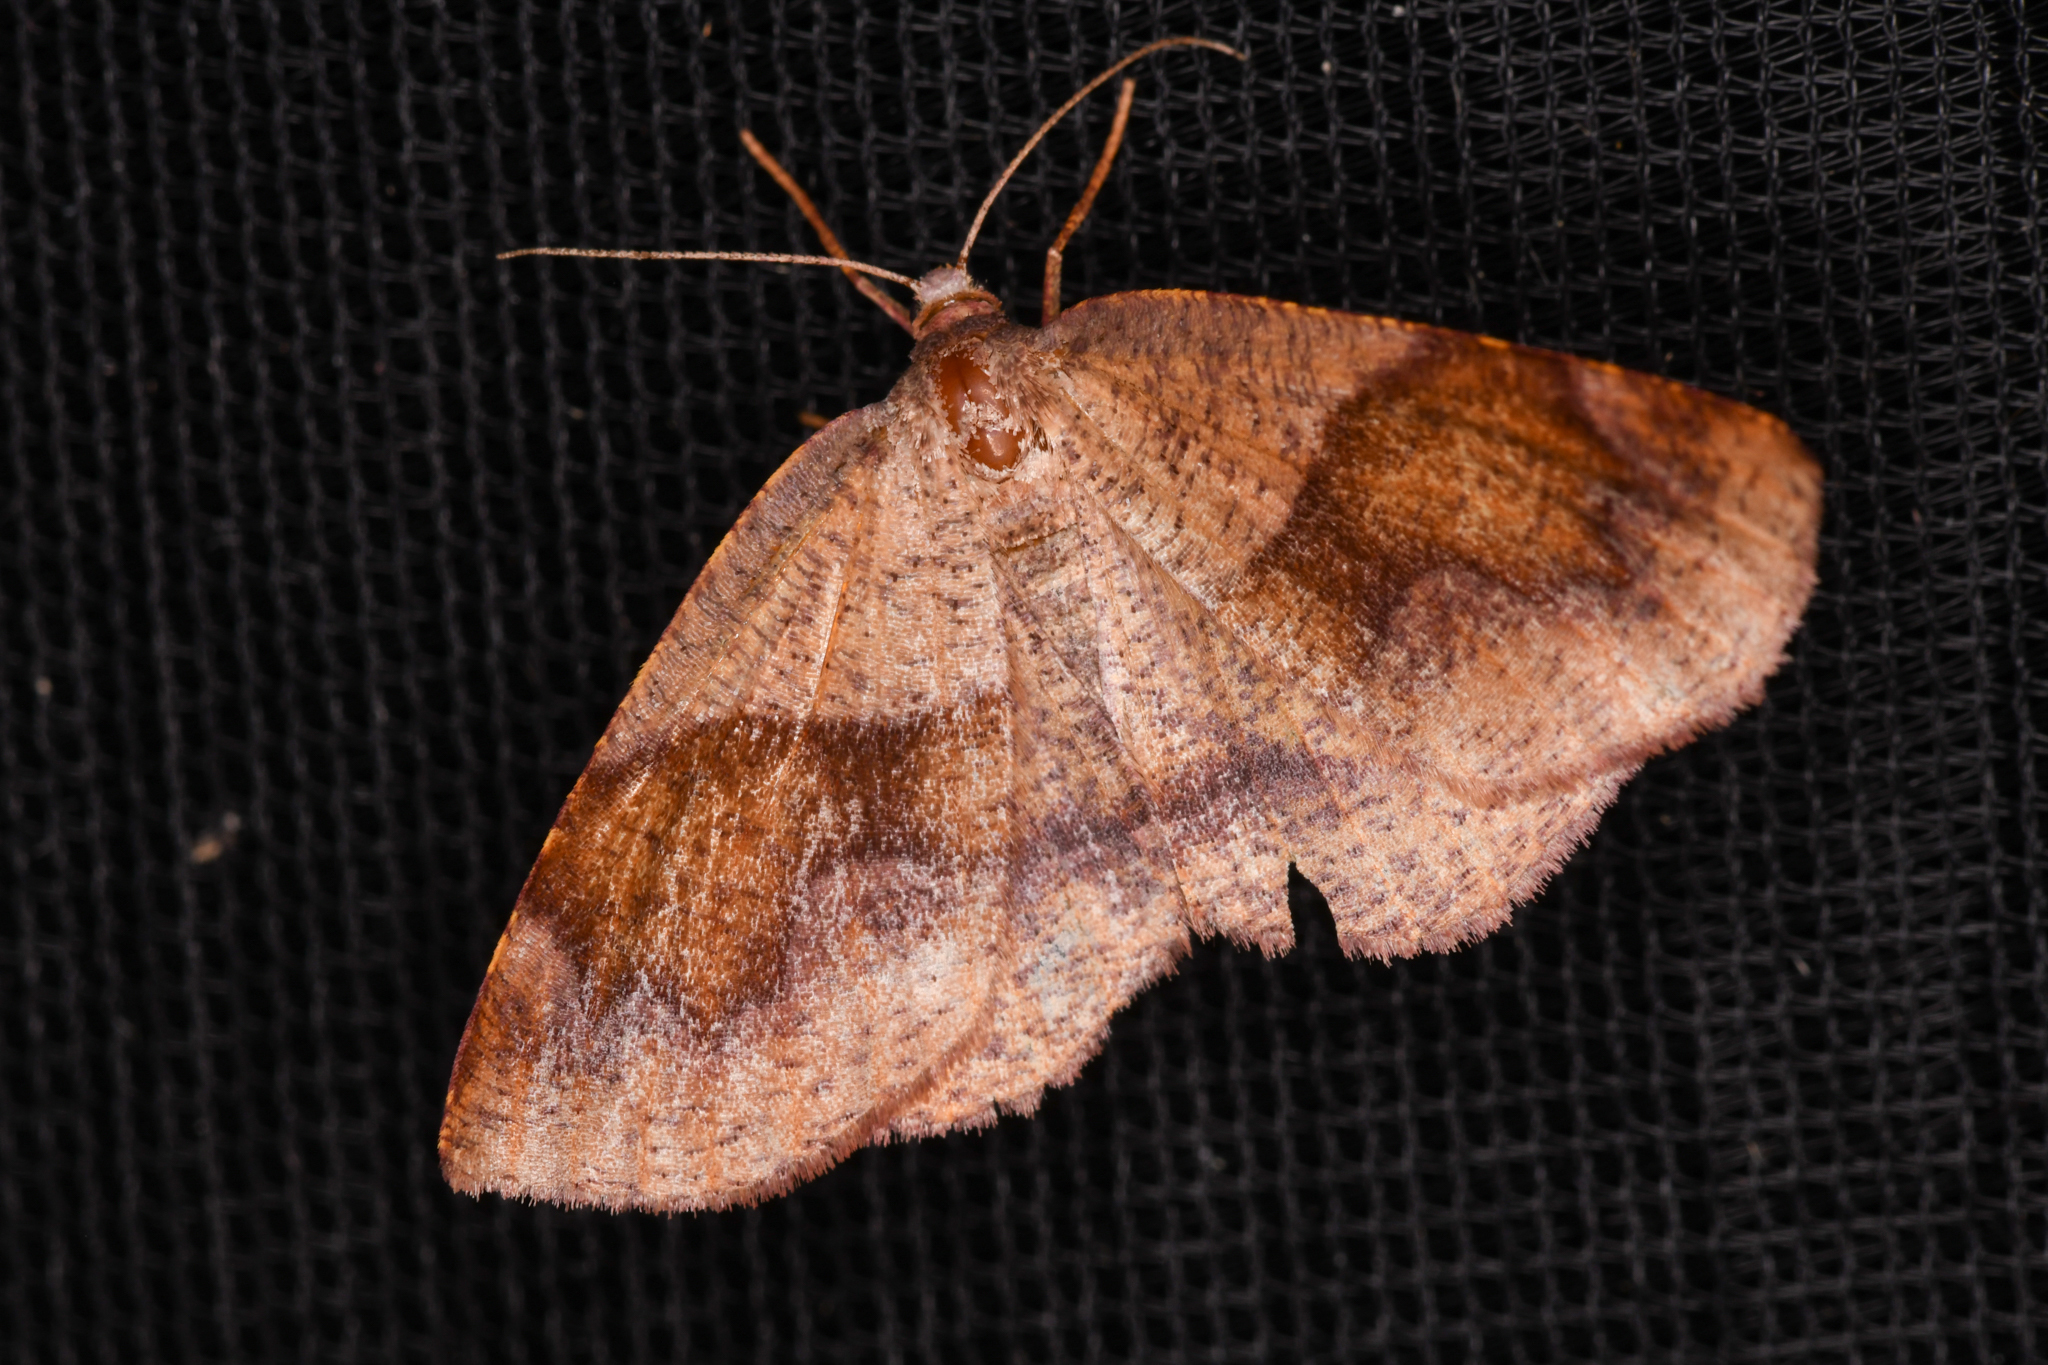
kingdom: Animalia
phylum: Arthropoda
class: Insecta
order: Lepidoptera
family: Geometridae
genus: Plagodis
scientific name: Plagodis pulveraria
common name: Barred umber
